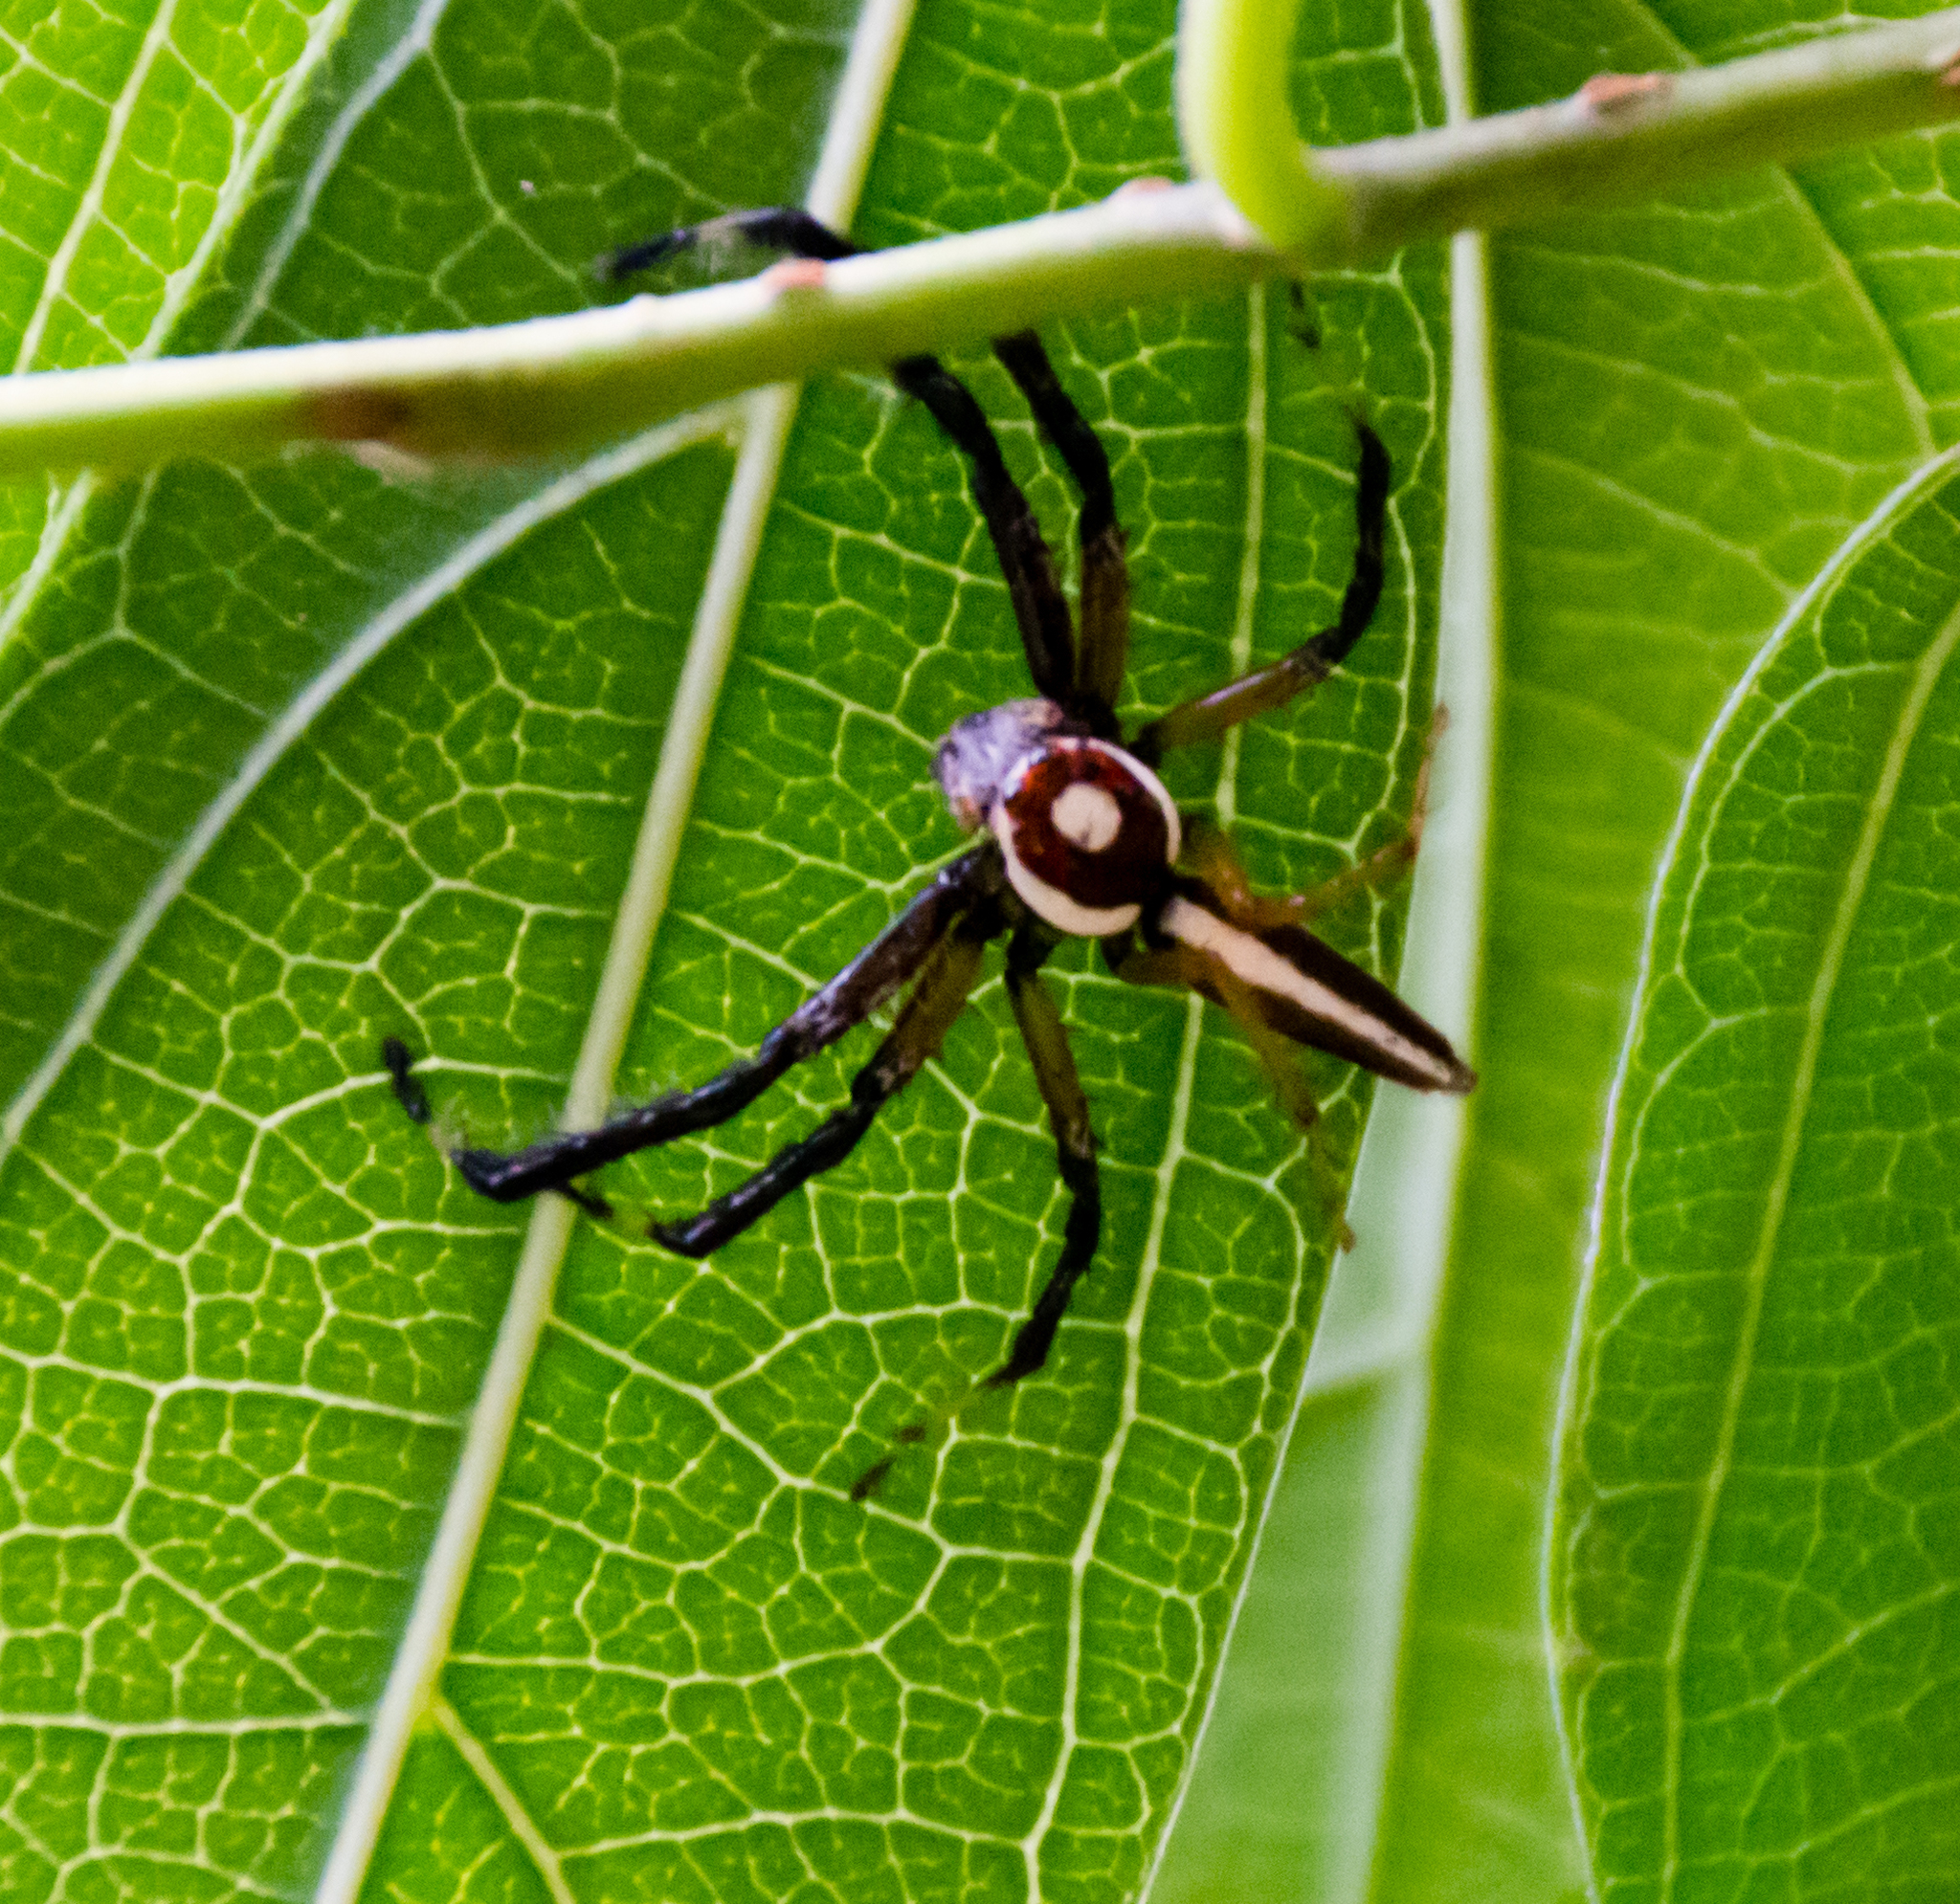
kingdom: Animalia
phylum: Arthropoda
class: Arachnida
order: Araneae
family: Salticidae
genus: Telamonia
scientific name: Telamonia dimidiata
